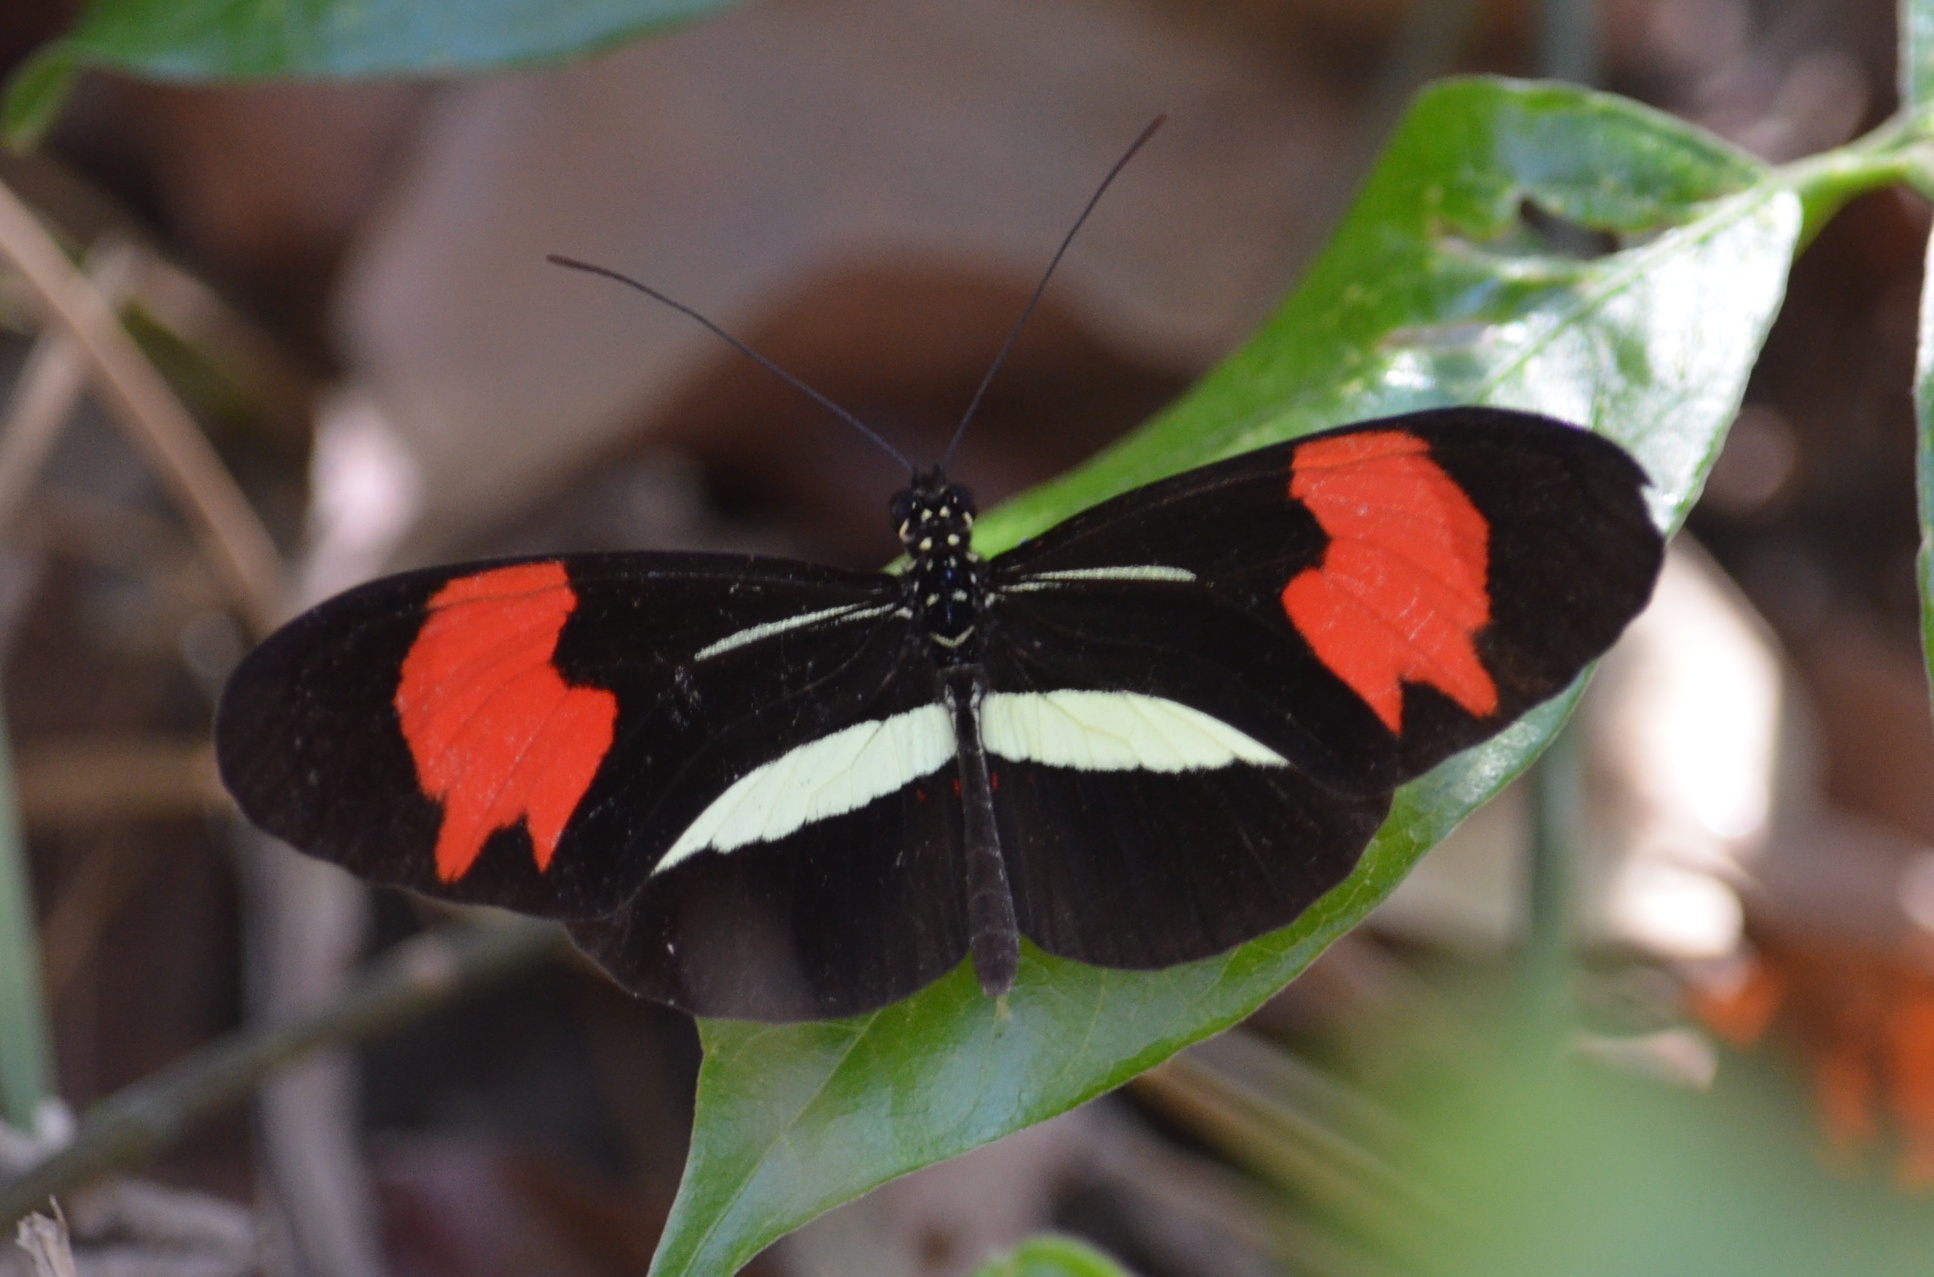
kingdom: Animalia
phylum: Arthropoda
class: Insecta
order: Lepidoptera
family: Nymphalidae
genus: Heliconius
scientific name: Heliconius erato
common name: Common patch longwing
